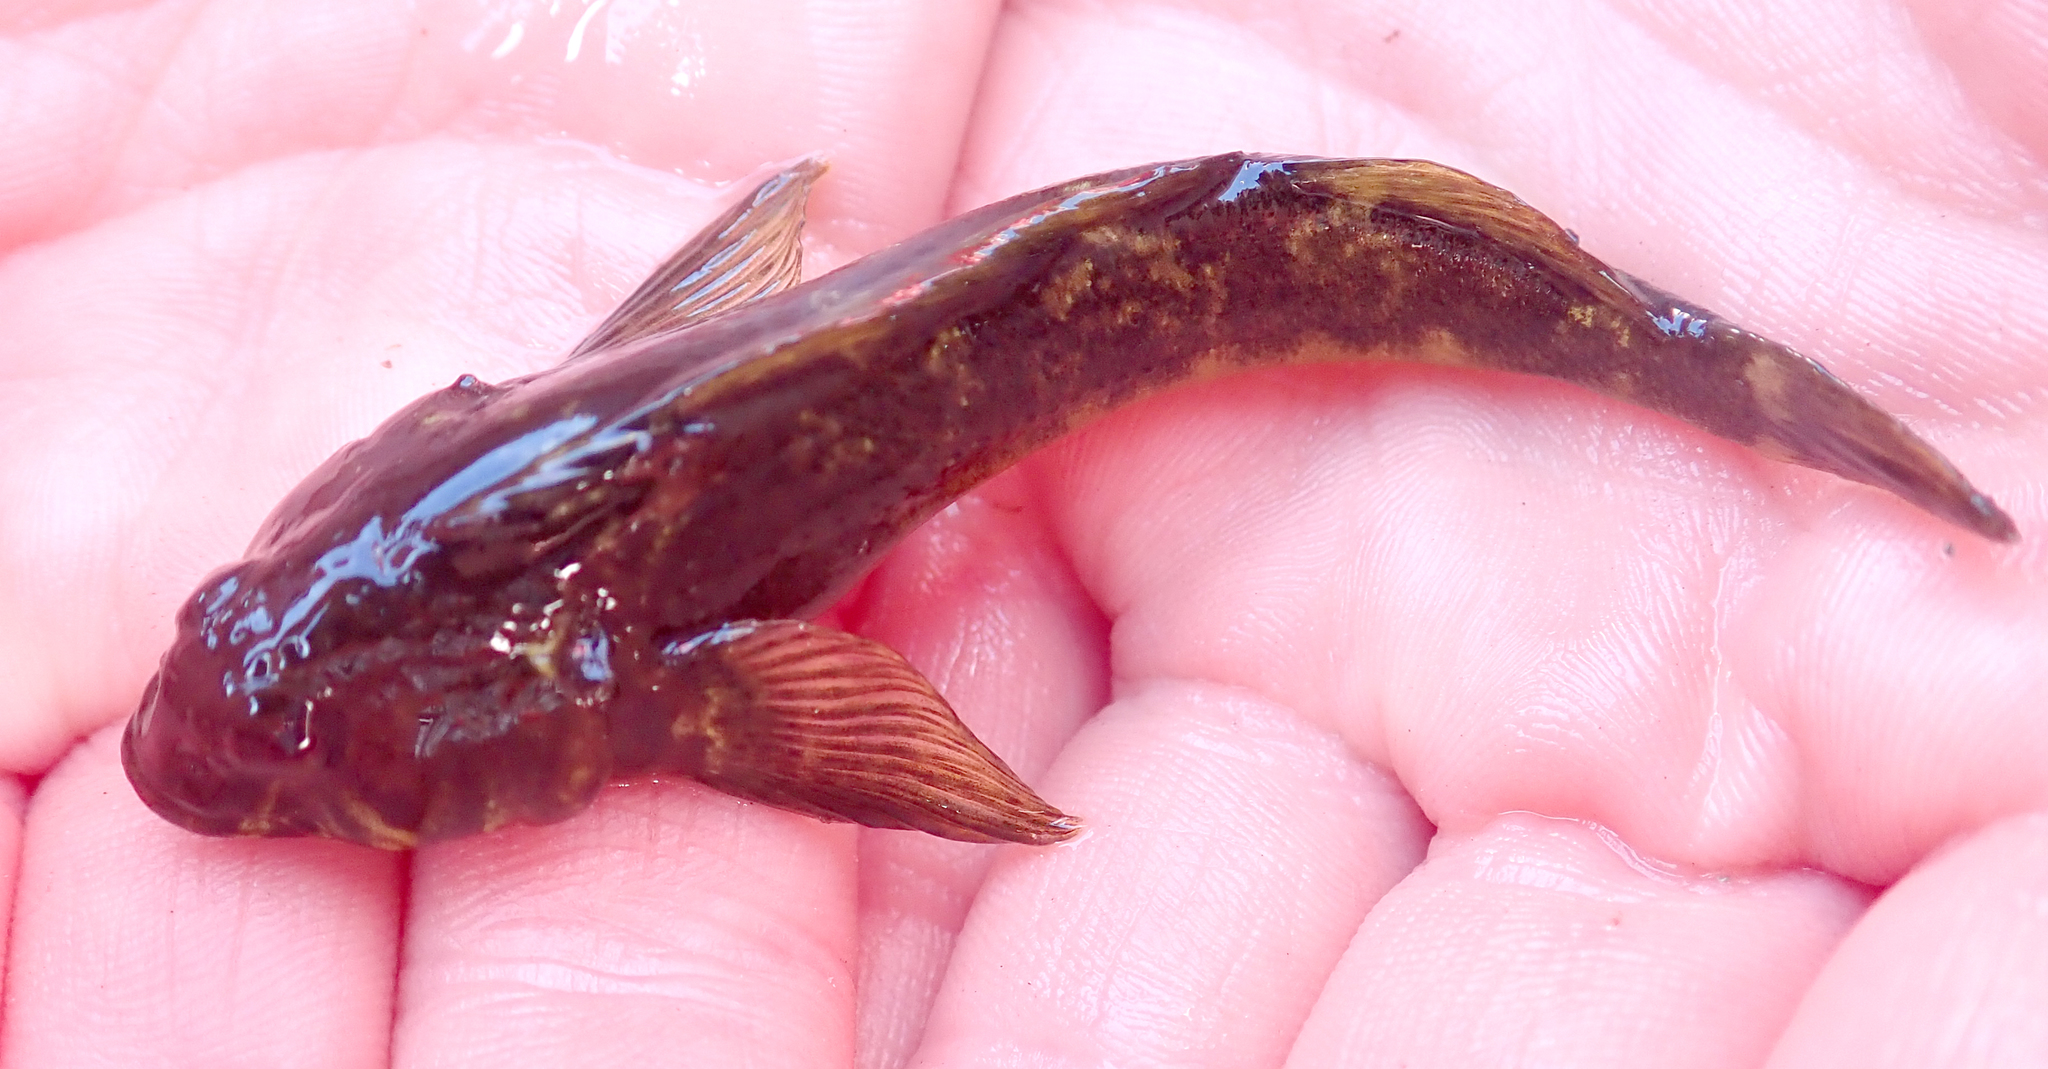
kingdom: Animalia
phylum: Chordata
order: Perciformes
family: Tripterygiidae
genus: Blennodon
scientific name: Blennodon dorsalis
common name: Giant triplefin
